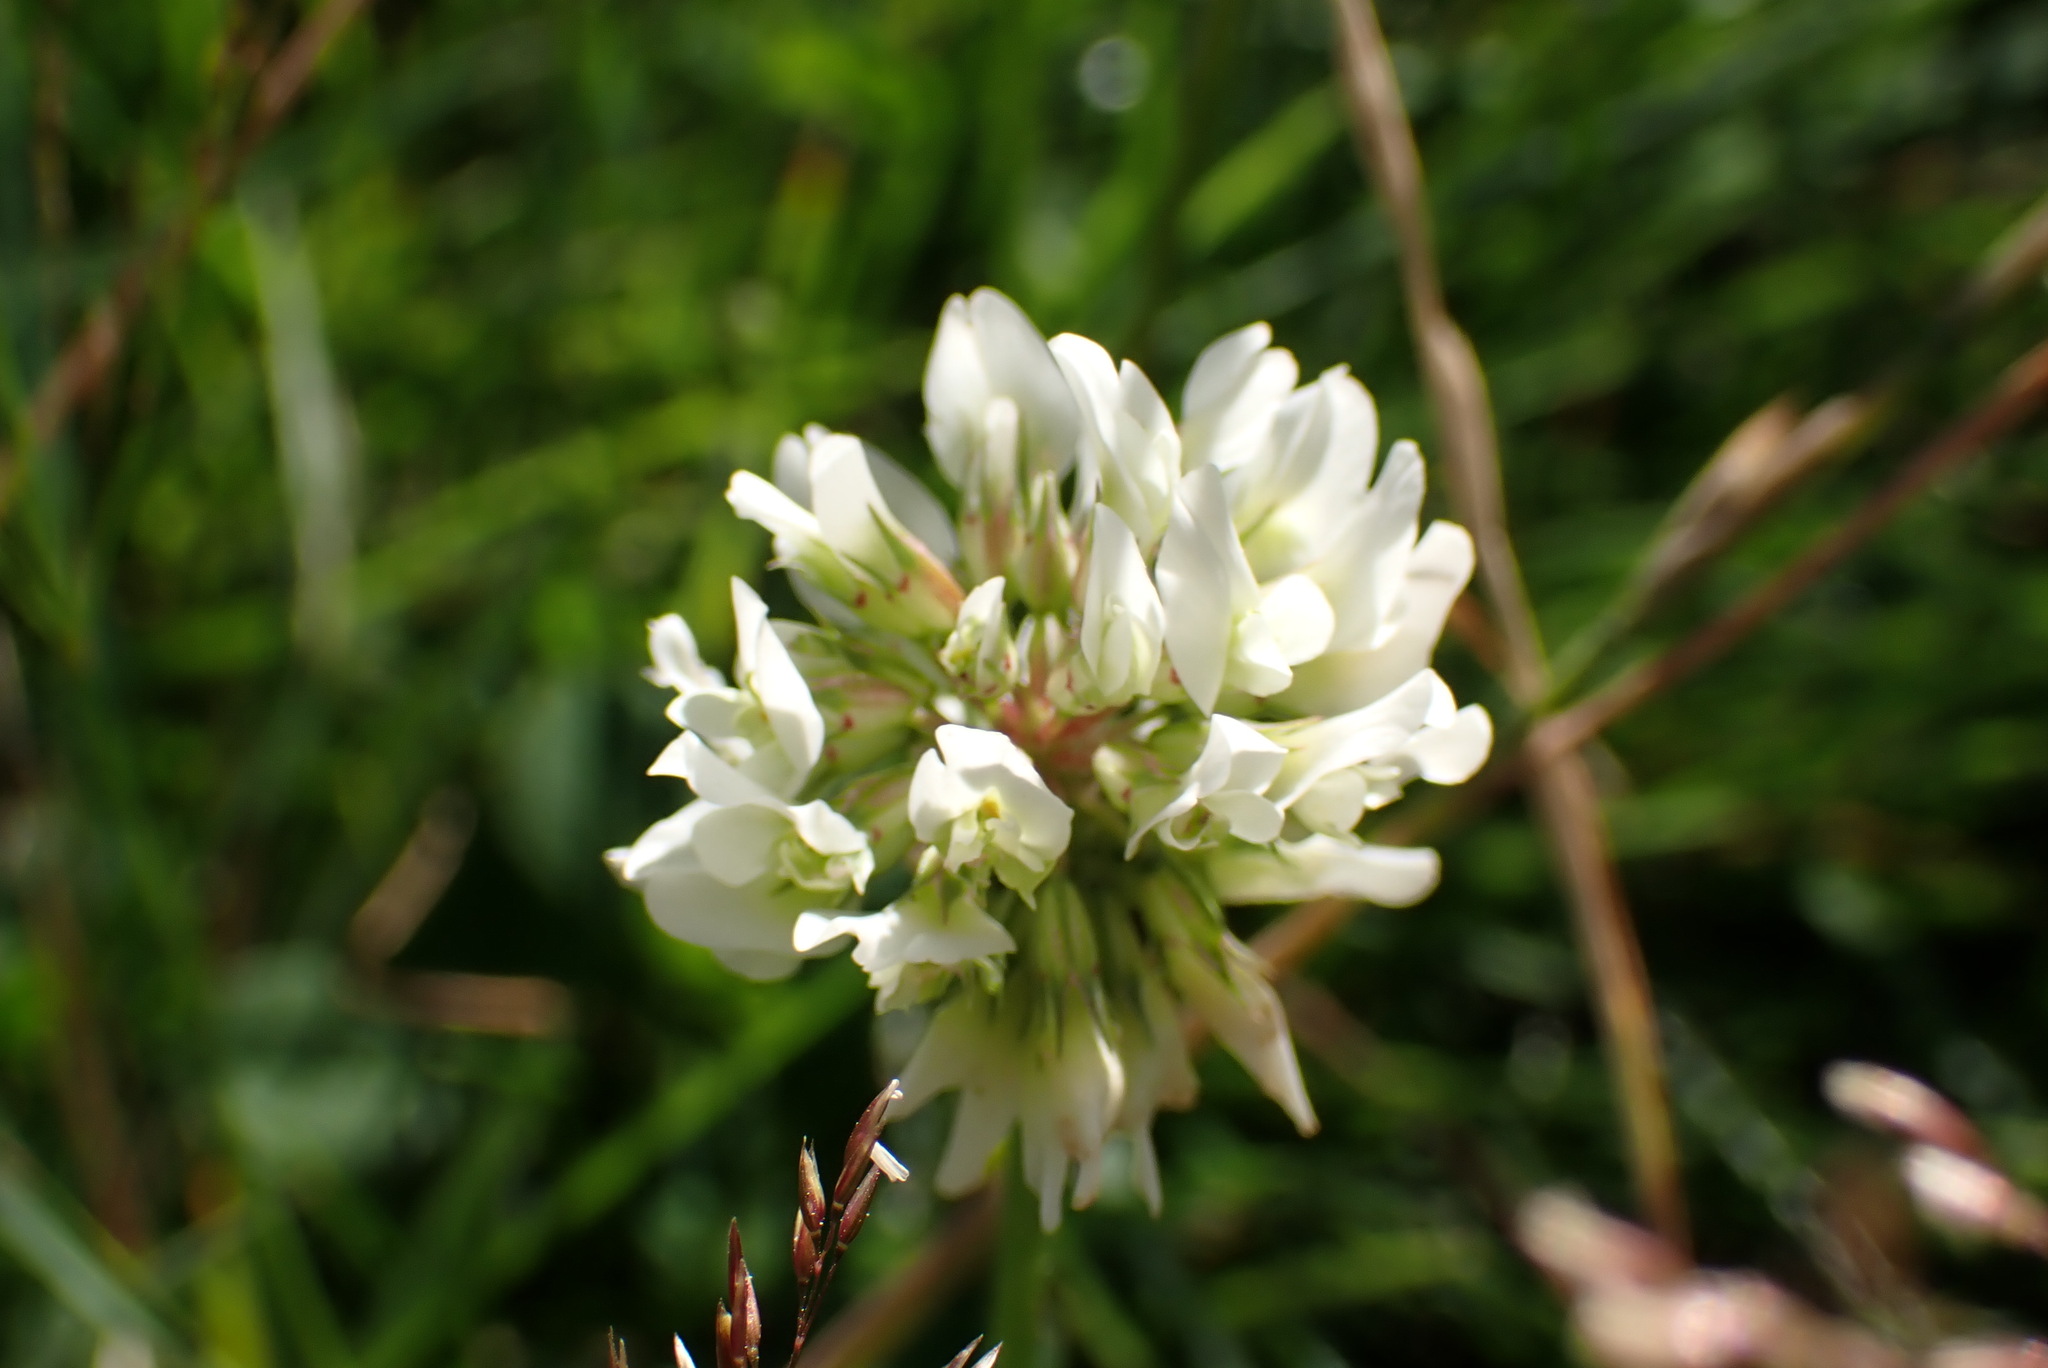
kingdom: Plantae
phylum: Tracheophyta
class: Magnoliopsida
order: Fabales
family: Fabaceae
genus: Trifolium
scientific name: Trifolium repens
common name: White clover
